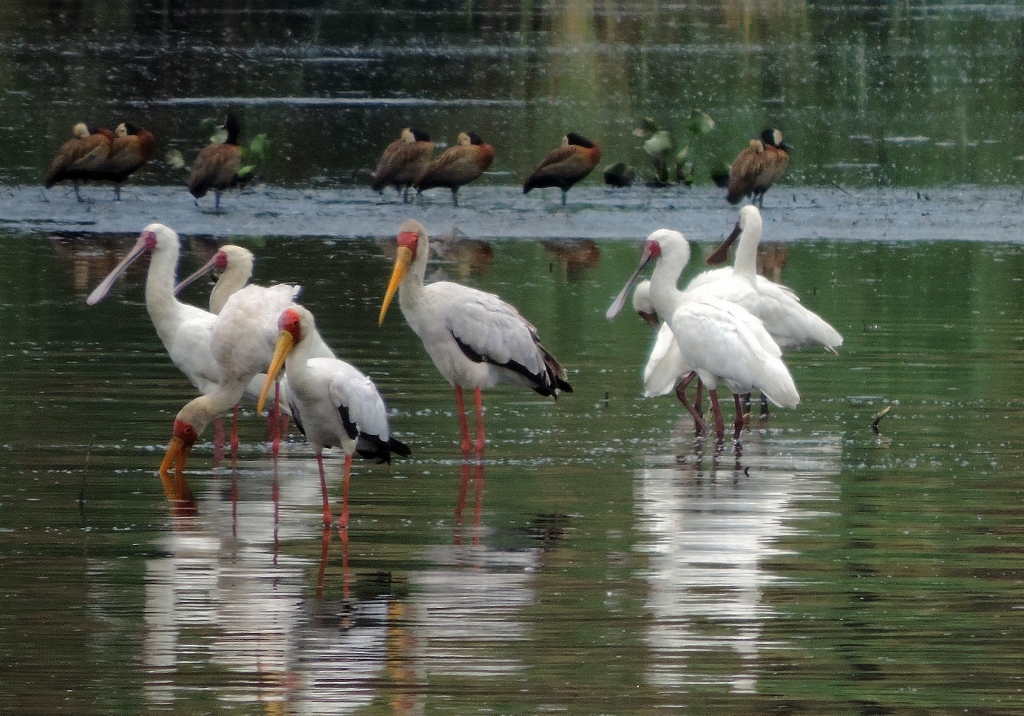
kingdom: Animalia
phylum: Chordata
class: Aves
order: Ciconiiformes
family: Ciconiidae
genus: Mycteria
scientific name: Mycteria ibis
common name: Yellow-billed stork
